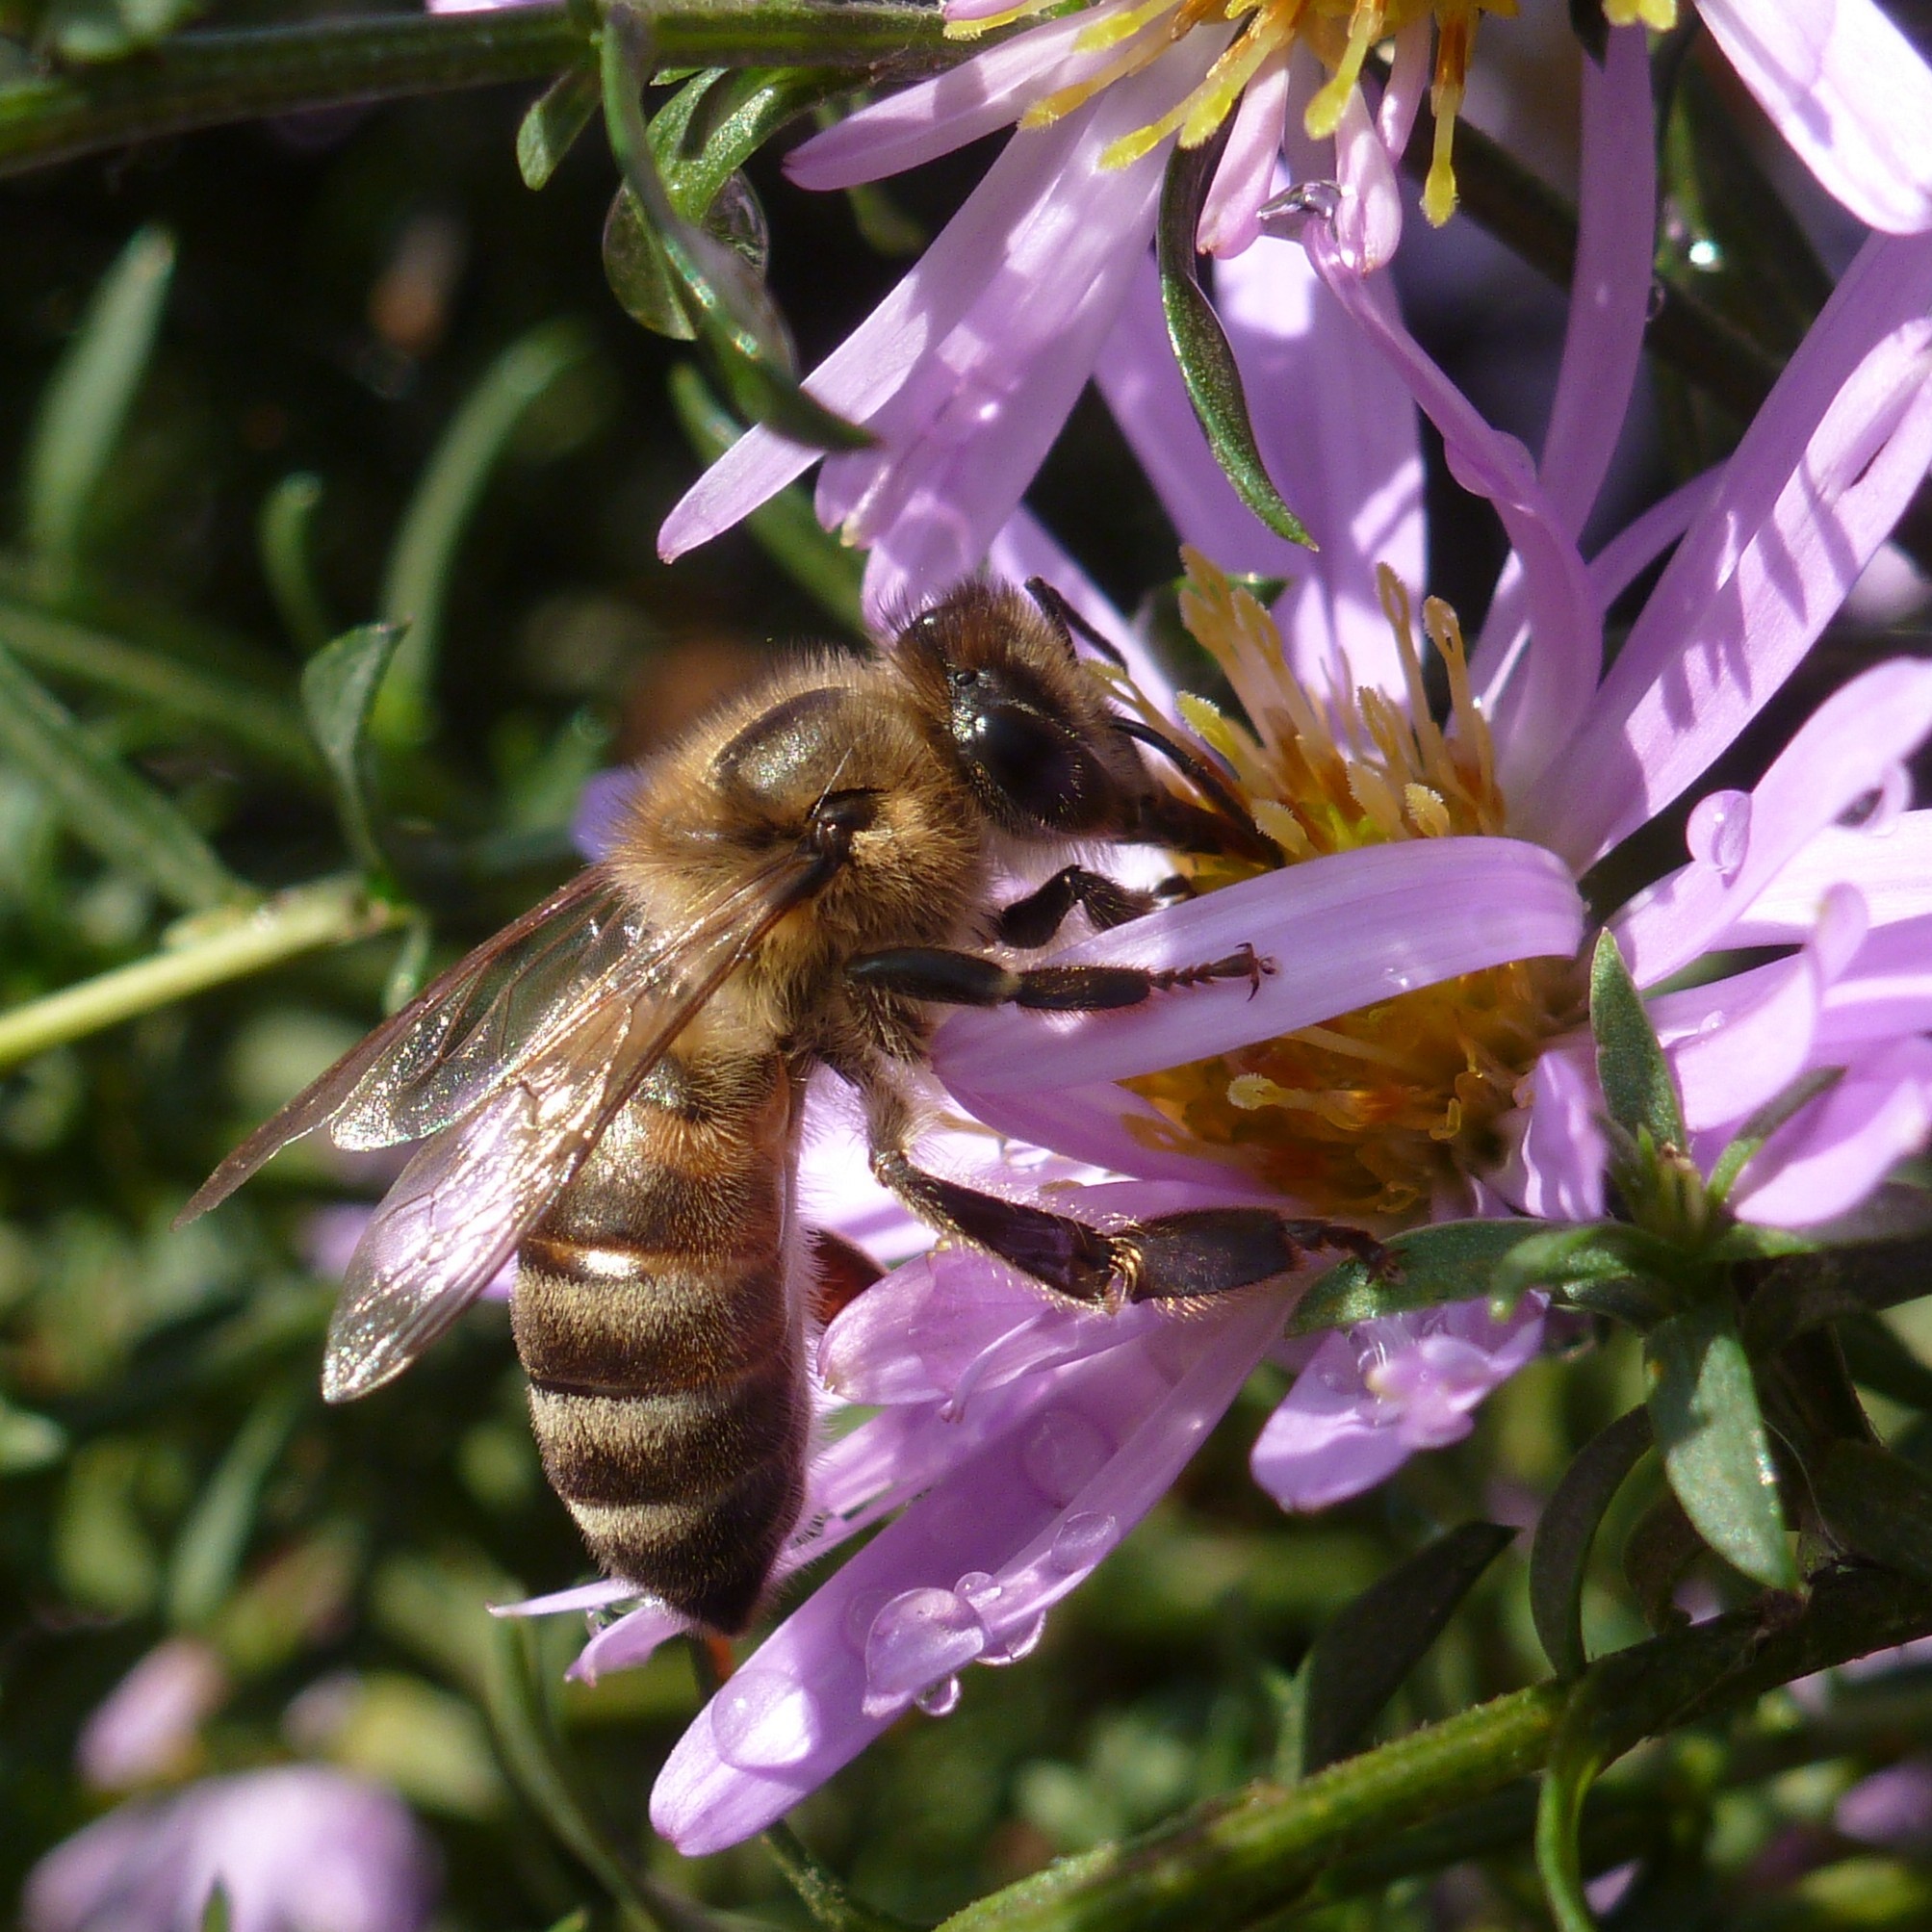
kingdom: Animalia
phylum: Arthropoda
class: Insecta
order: Hymenoptera
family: Apidae
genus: Apis
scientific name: Apis mellifera
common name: Honey bee
